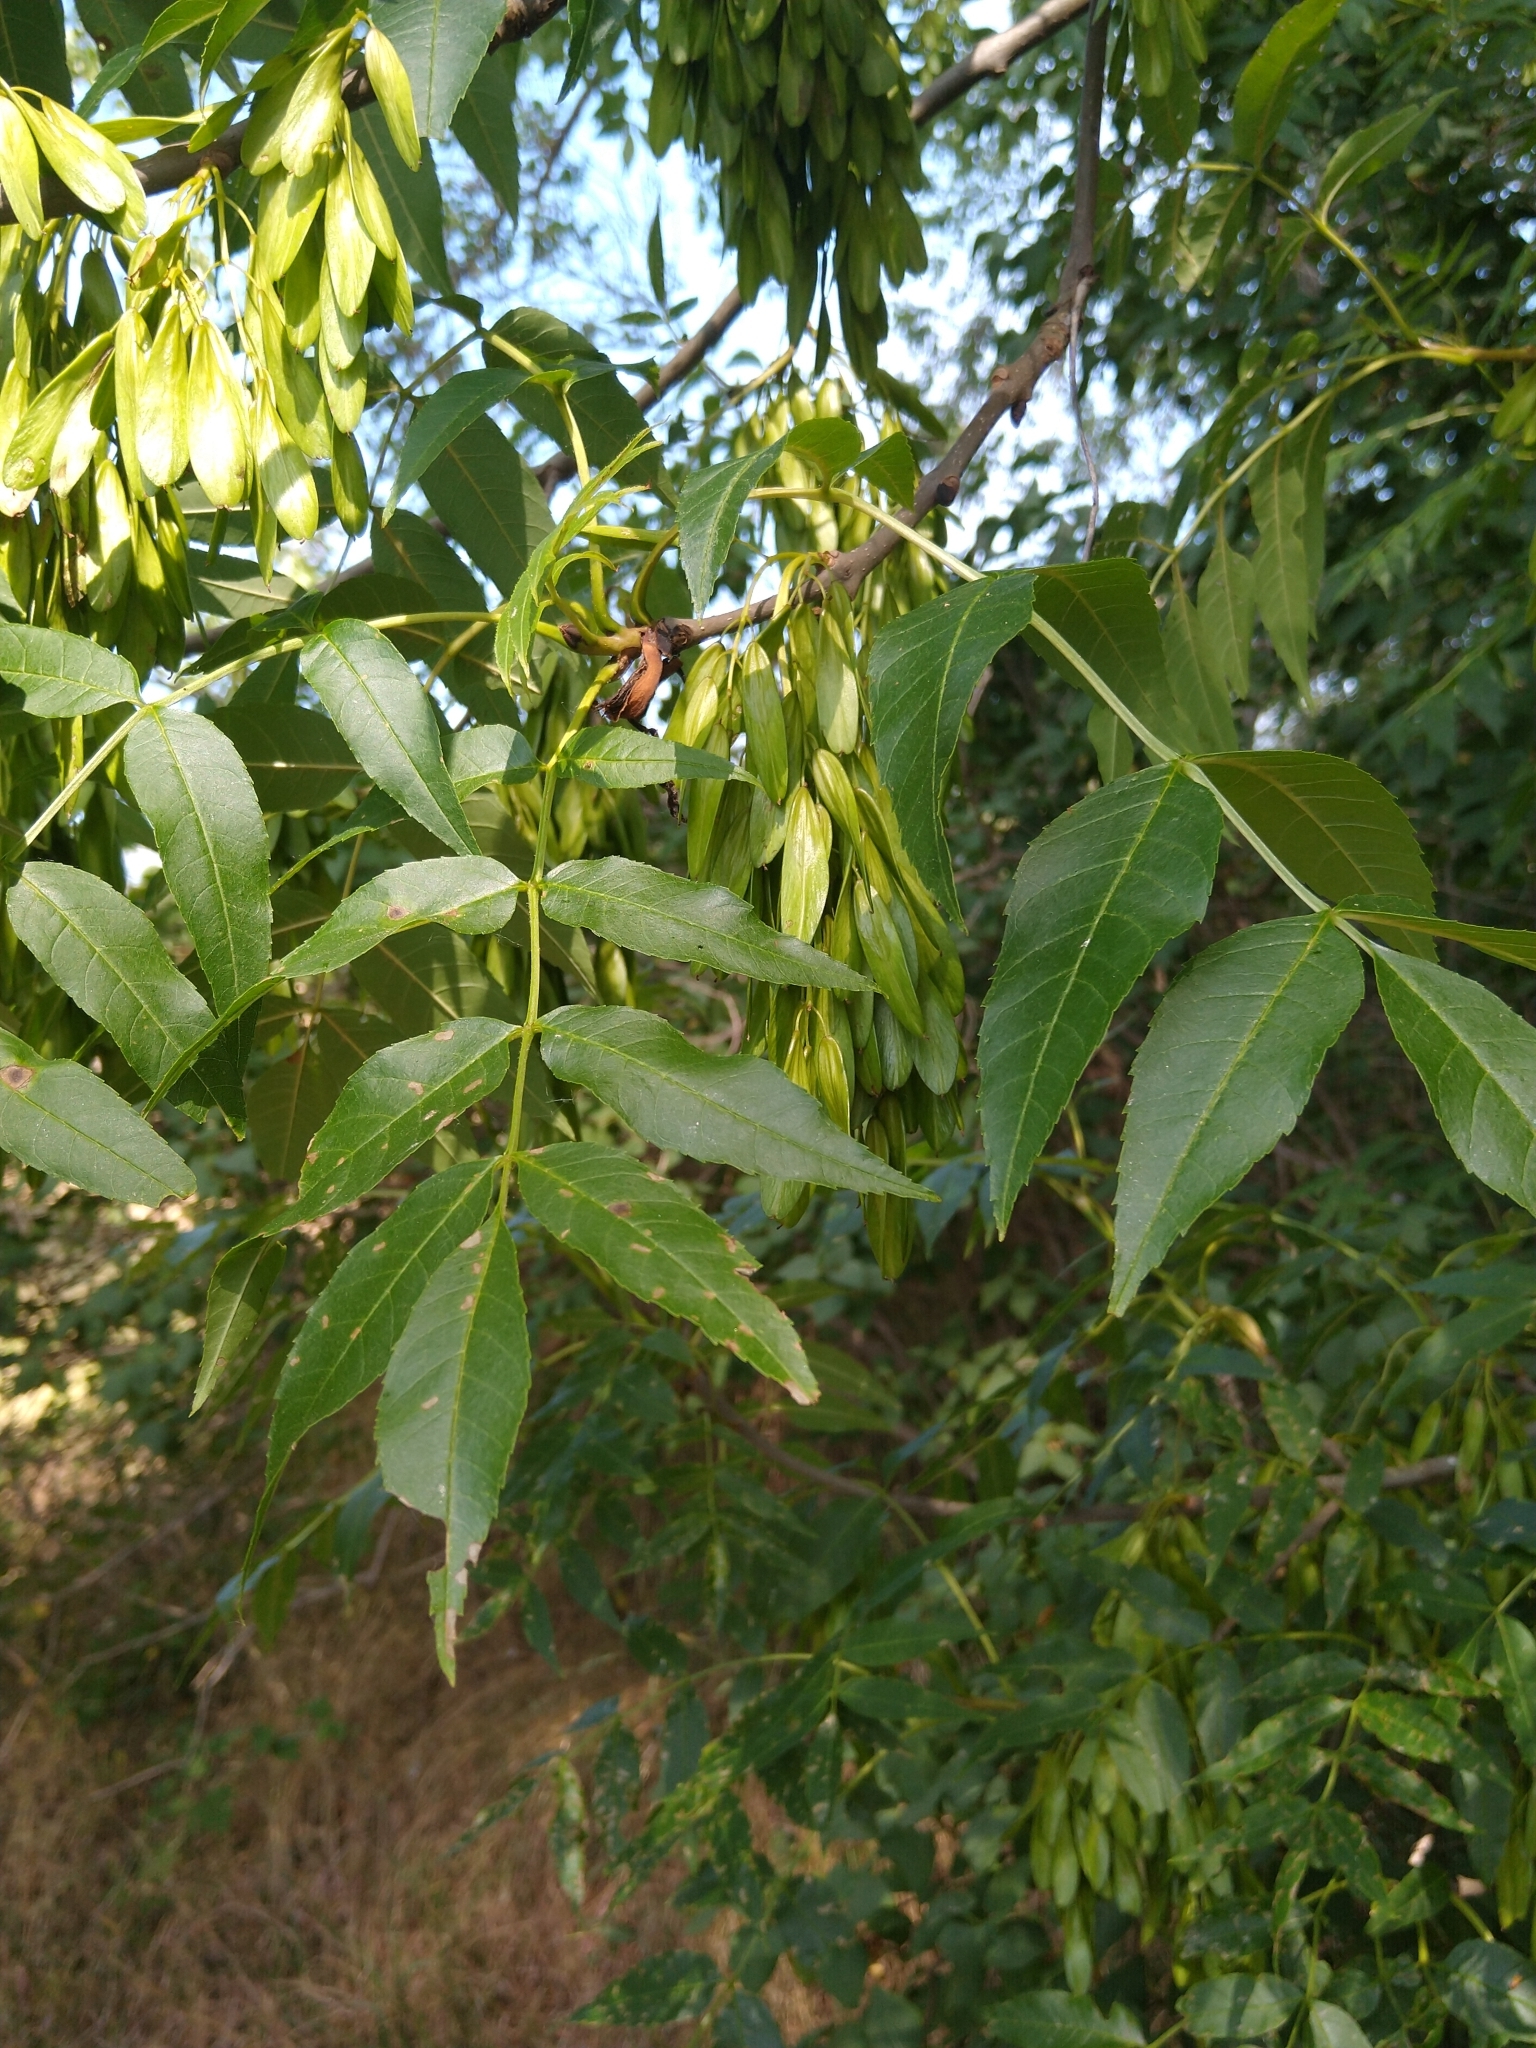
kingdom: Plantae
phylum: Tracheophyta
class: Magnoliopsida
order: Lamiales
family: Oleaceae
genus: Fraxinus
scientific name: Fraxinus excelsior
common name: European ash
